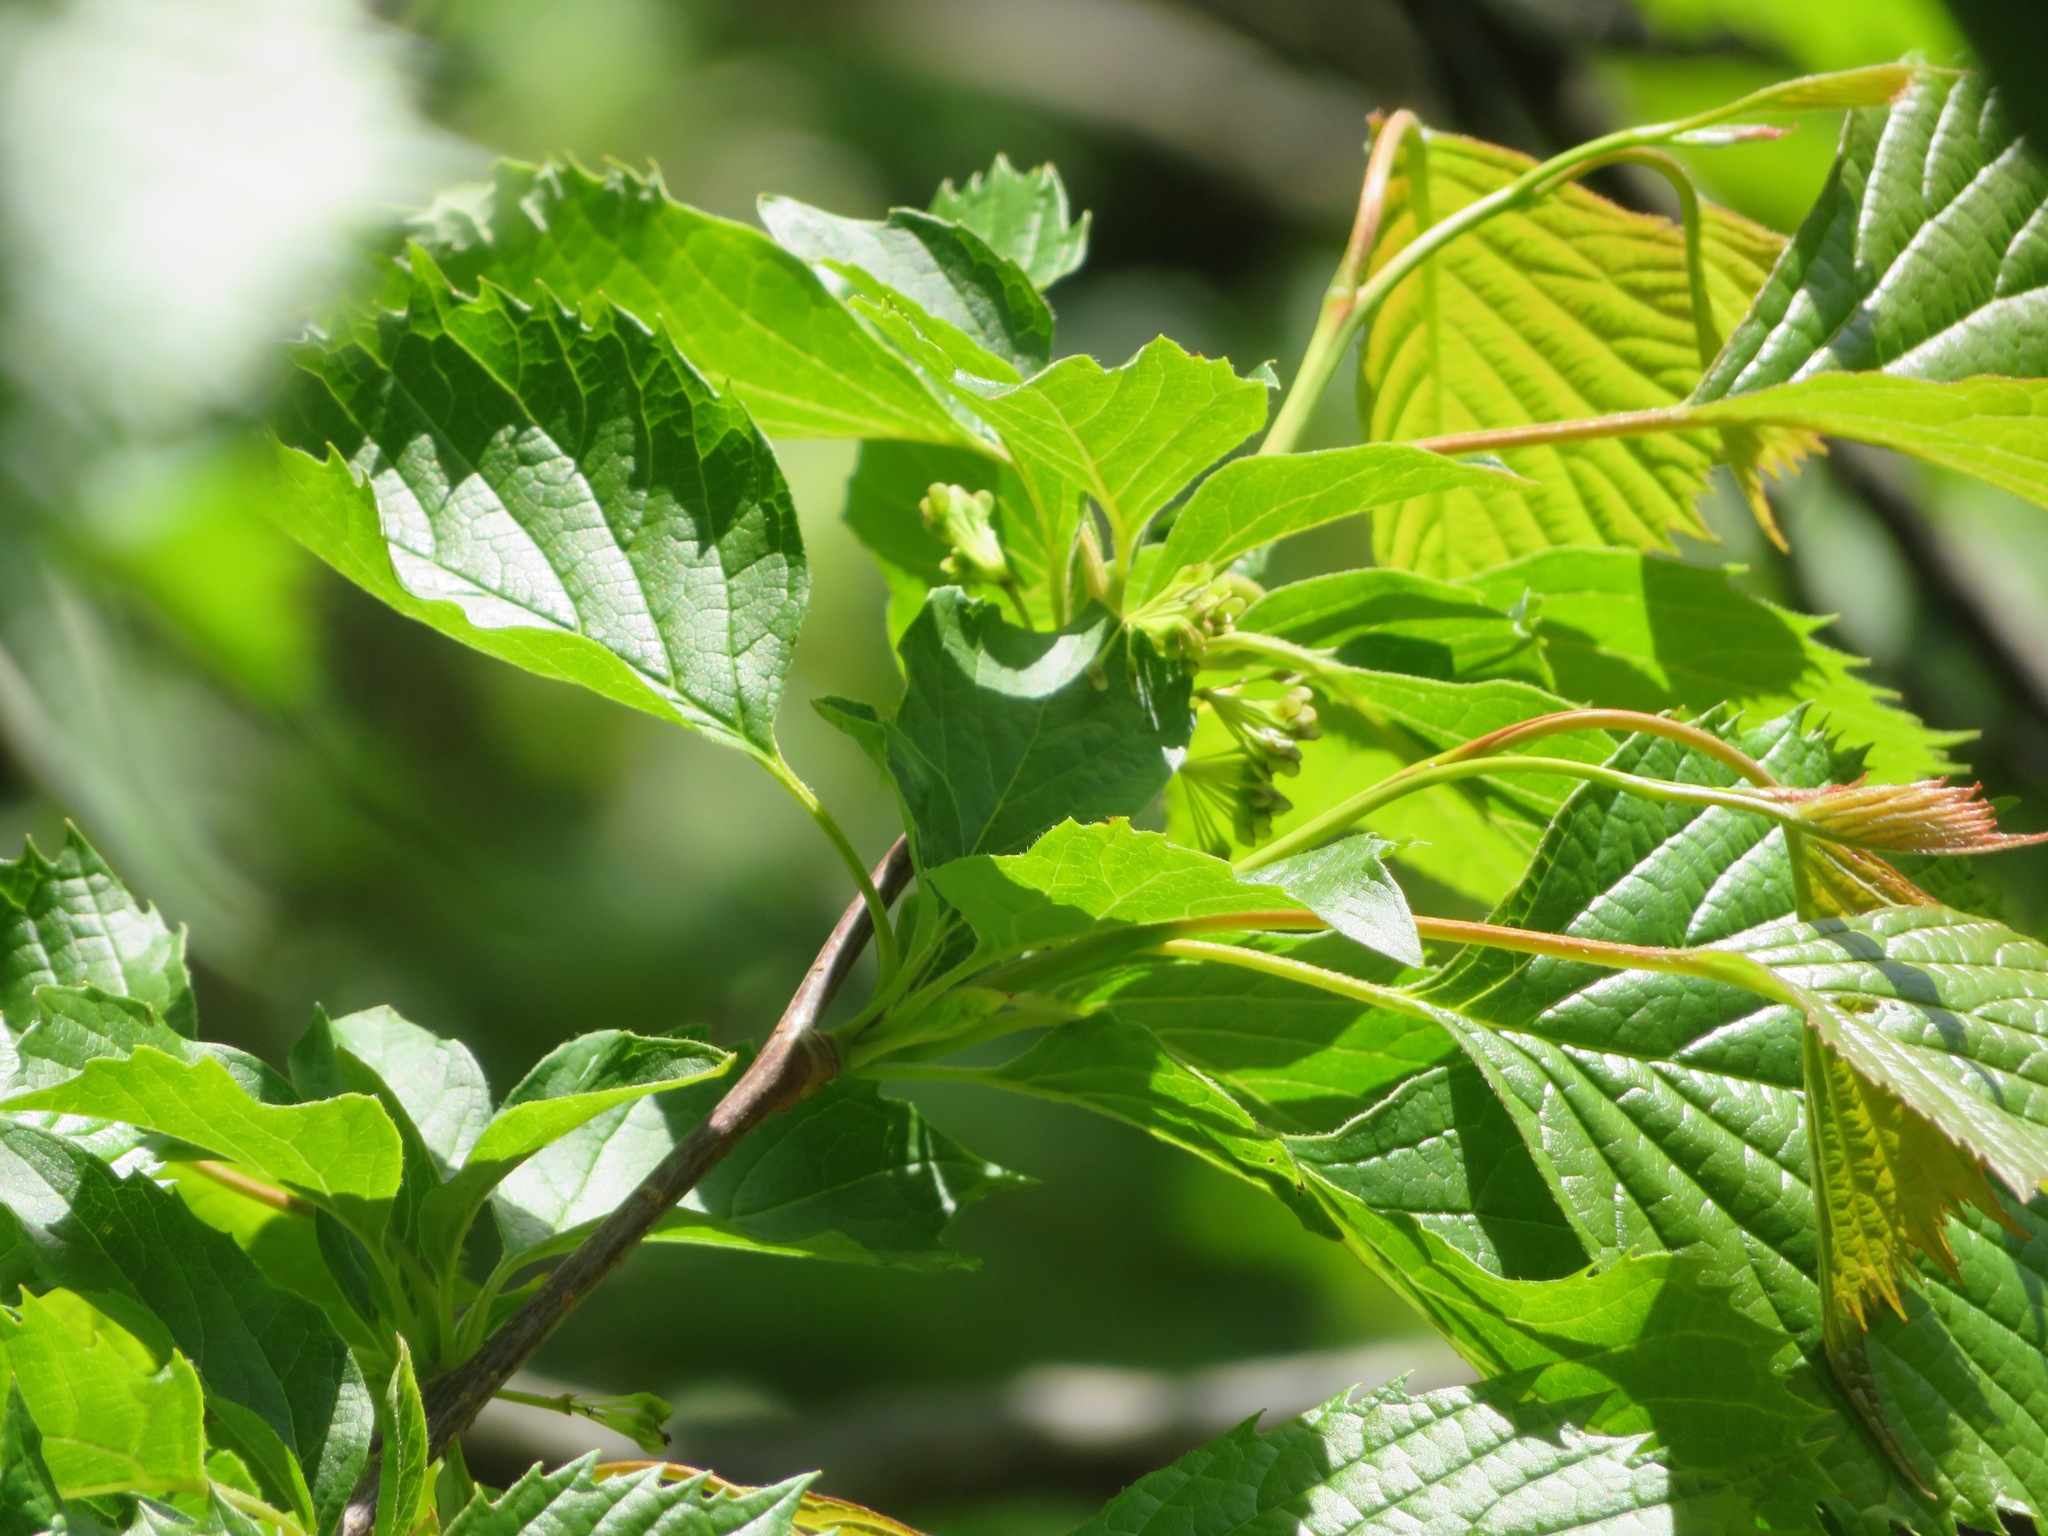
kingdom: Plantae
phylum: Tracheophyta
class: Magnoliopsida
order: Ranunculales
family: Eupteleaceae
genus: Euptelea
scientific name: Euptelea polyandra
